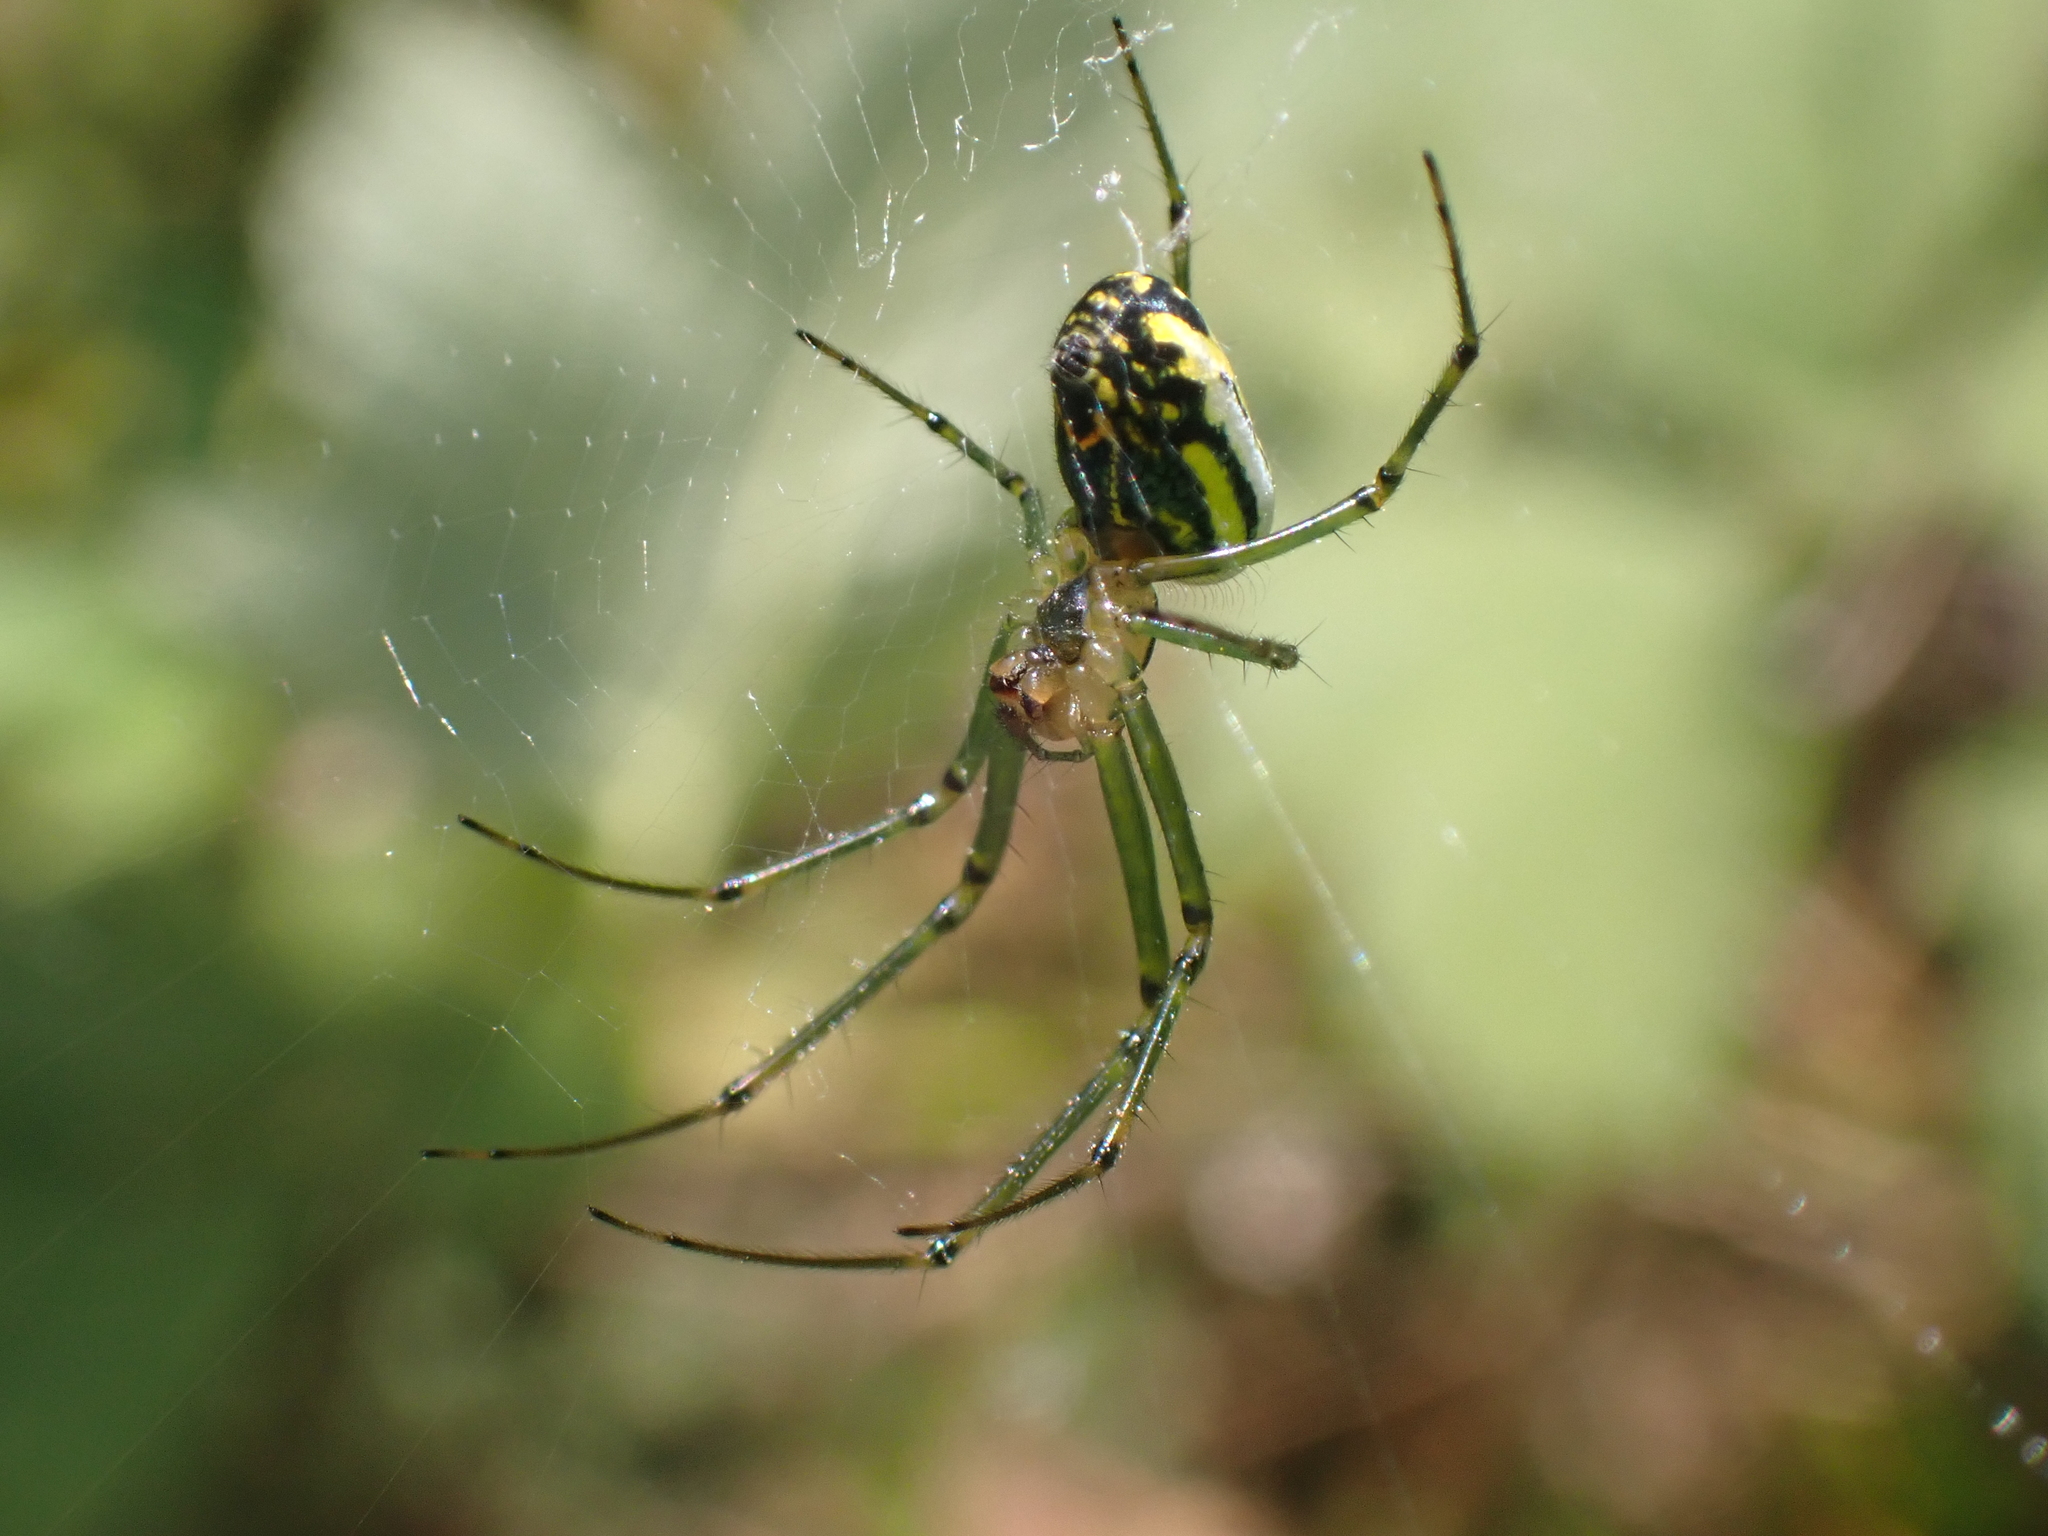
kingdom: Animalia
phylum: Arthropoda
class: Arachnida
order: Araneae
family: Tetragnathidae
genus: Leucauge
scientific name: Leucauge venusta
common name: Longjawed orb weavers
